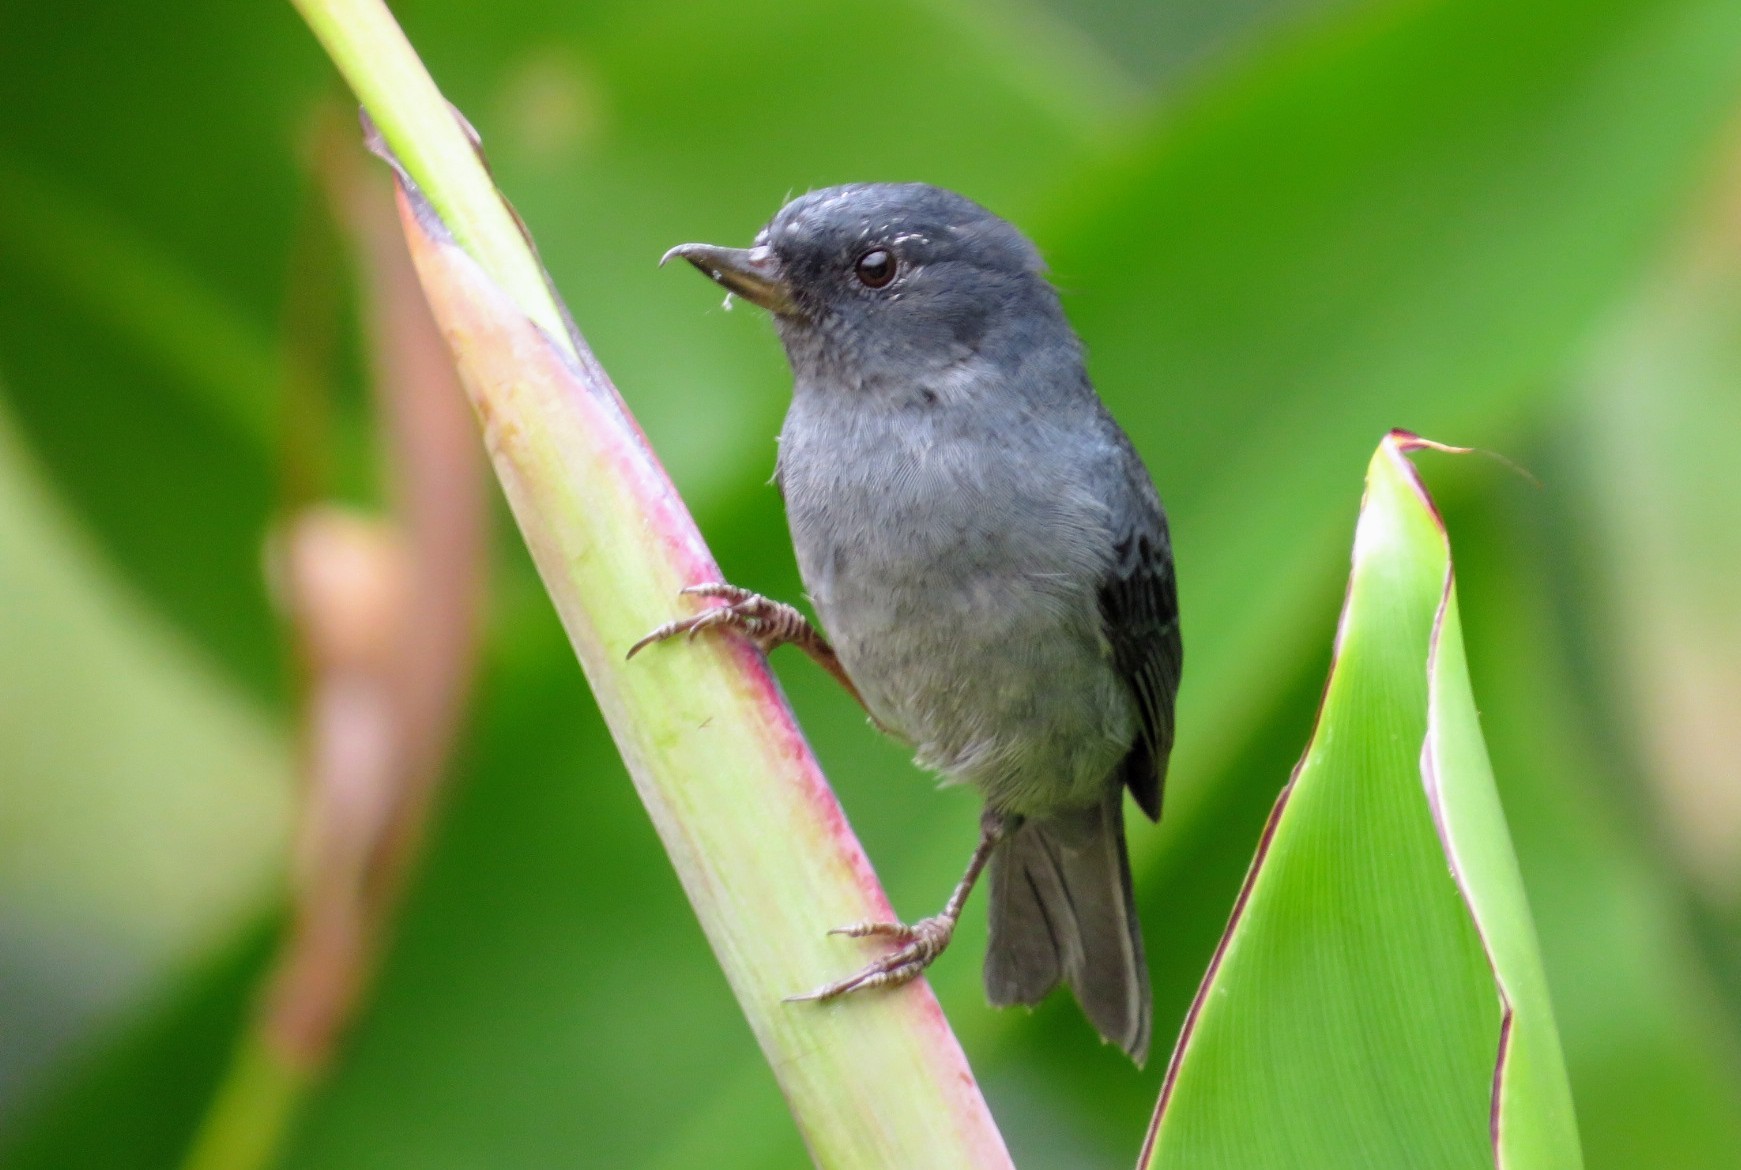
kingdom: Animalia
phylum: Chordata
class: Aves
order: Passeriformes
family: Thraupidae
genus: Diglossa
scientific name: Diglossa plumbea
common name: Slaty flowerpiercer
